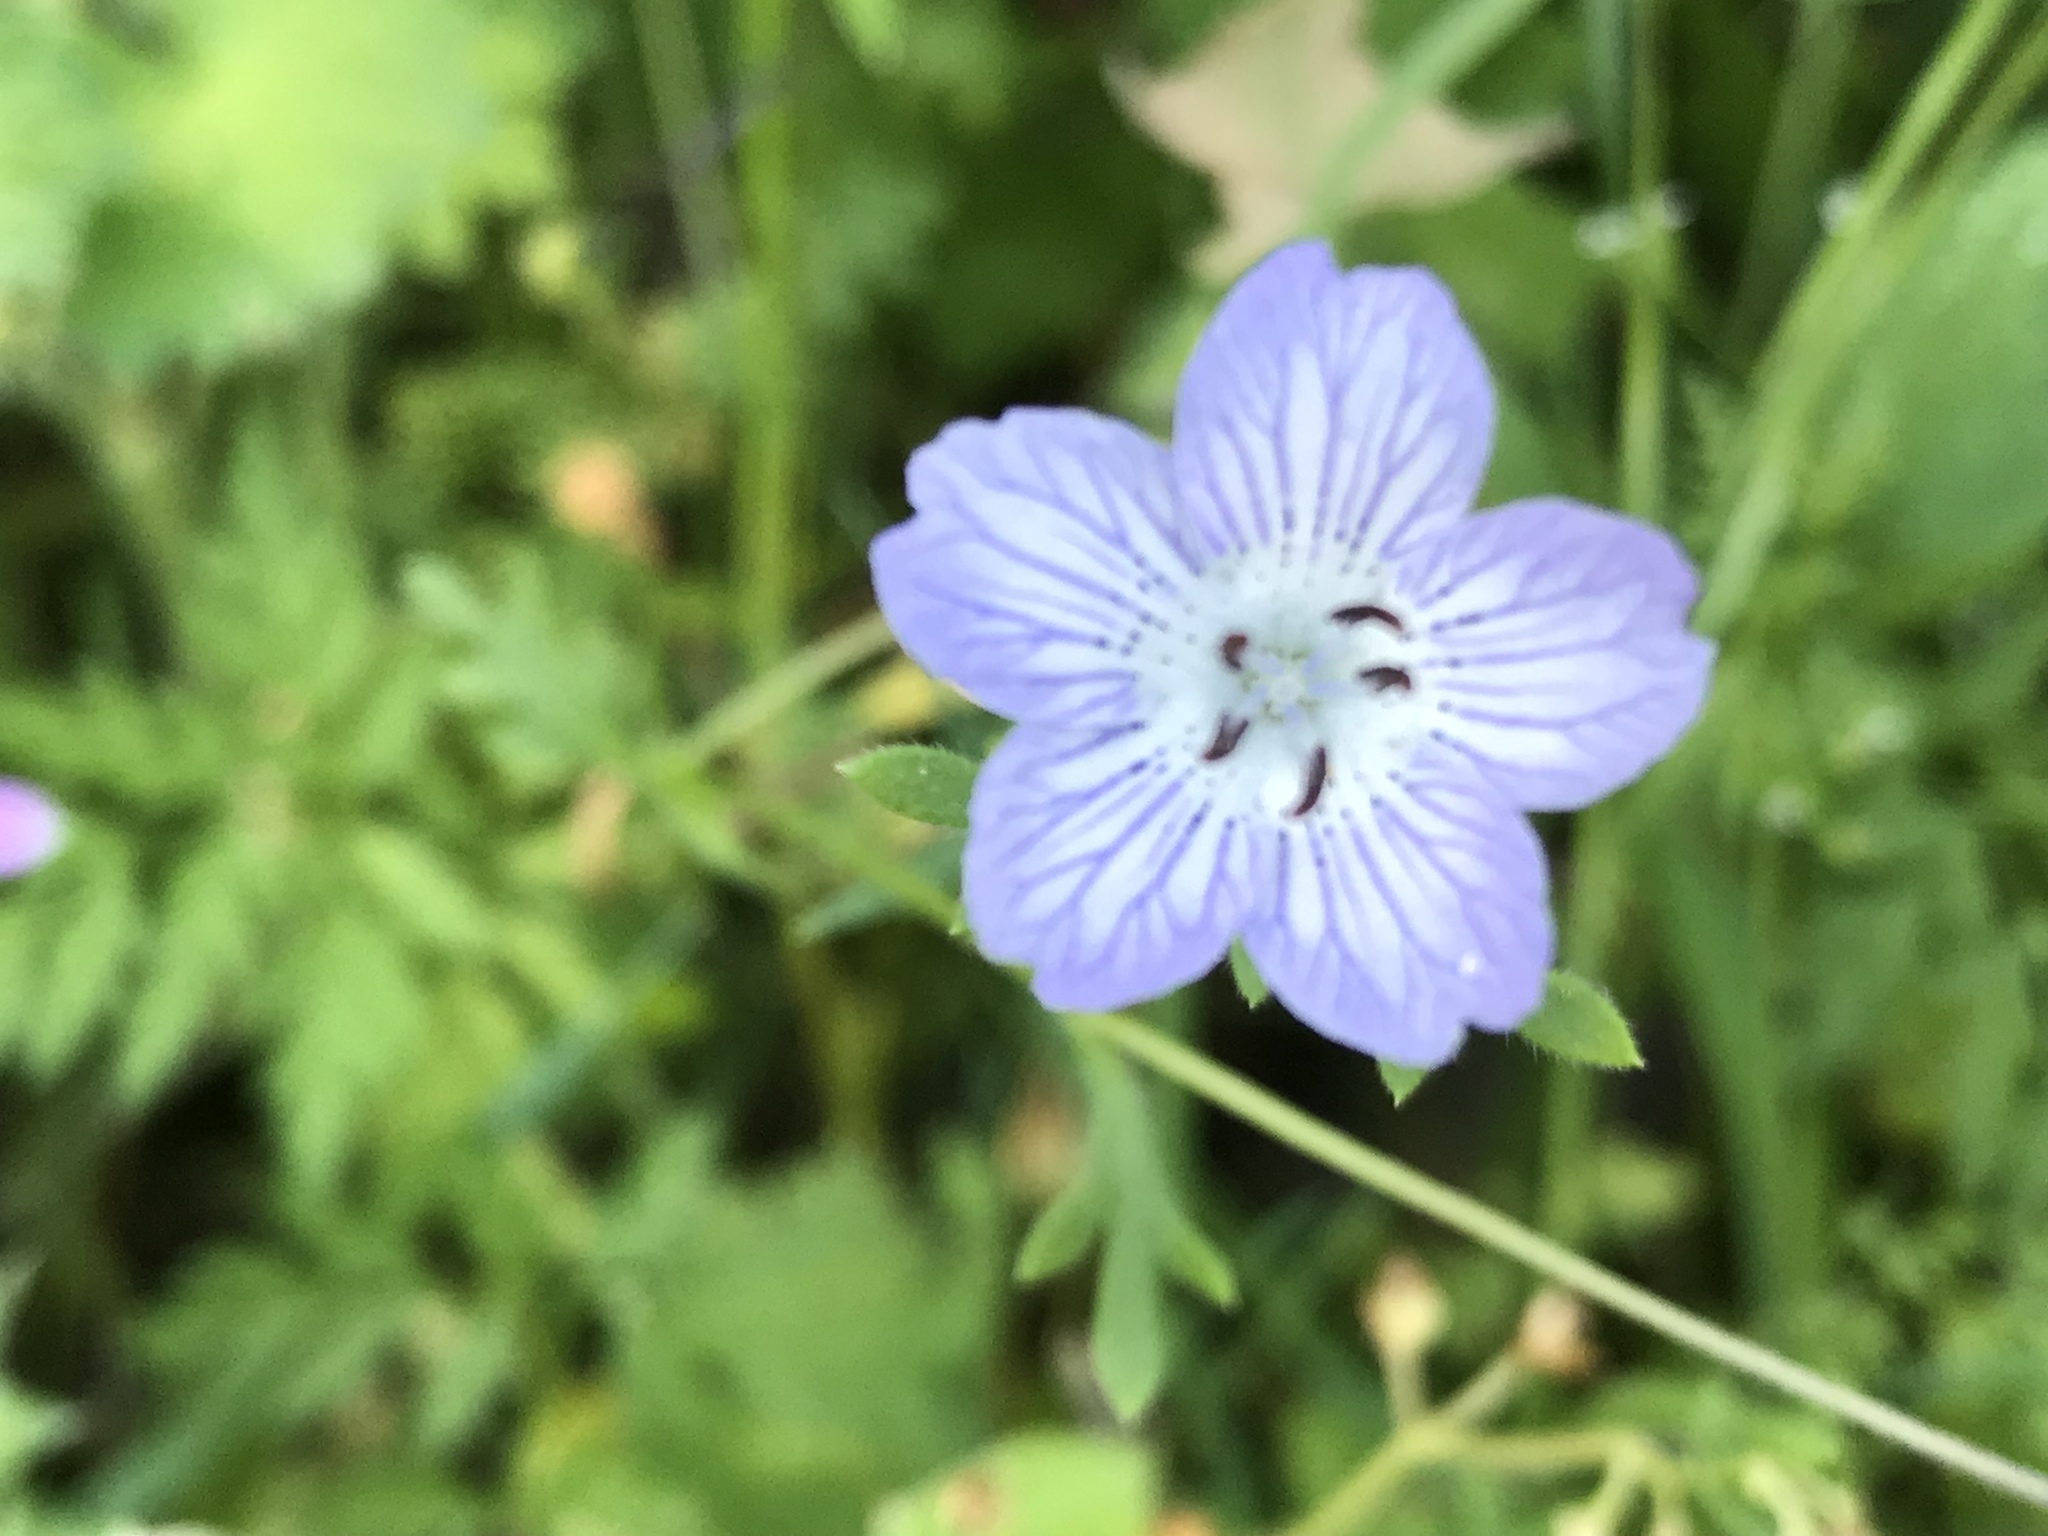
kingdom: Plantae
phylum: Tracheophyta
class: Magnoliopsida
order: Boraginales
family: Hydrophyllaceae
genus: Nemophila
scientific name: Nemophila menziesii
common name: Baby's-blue-eyes
